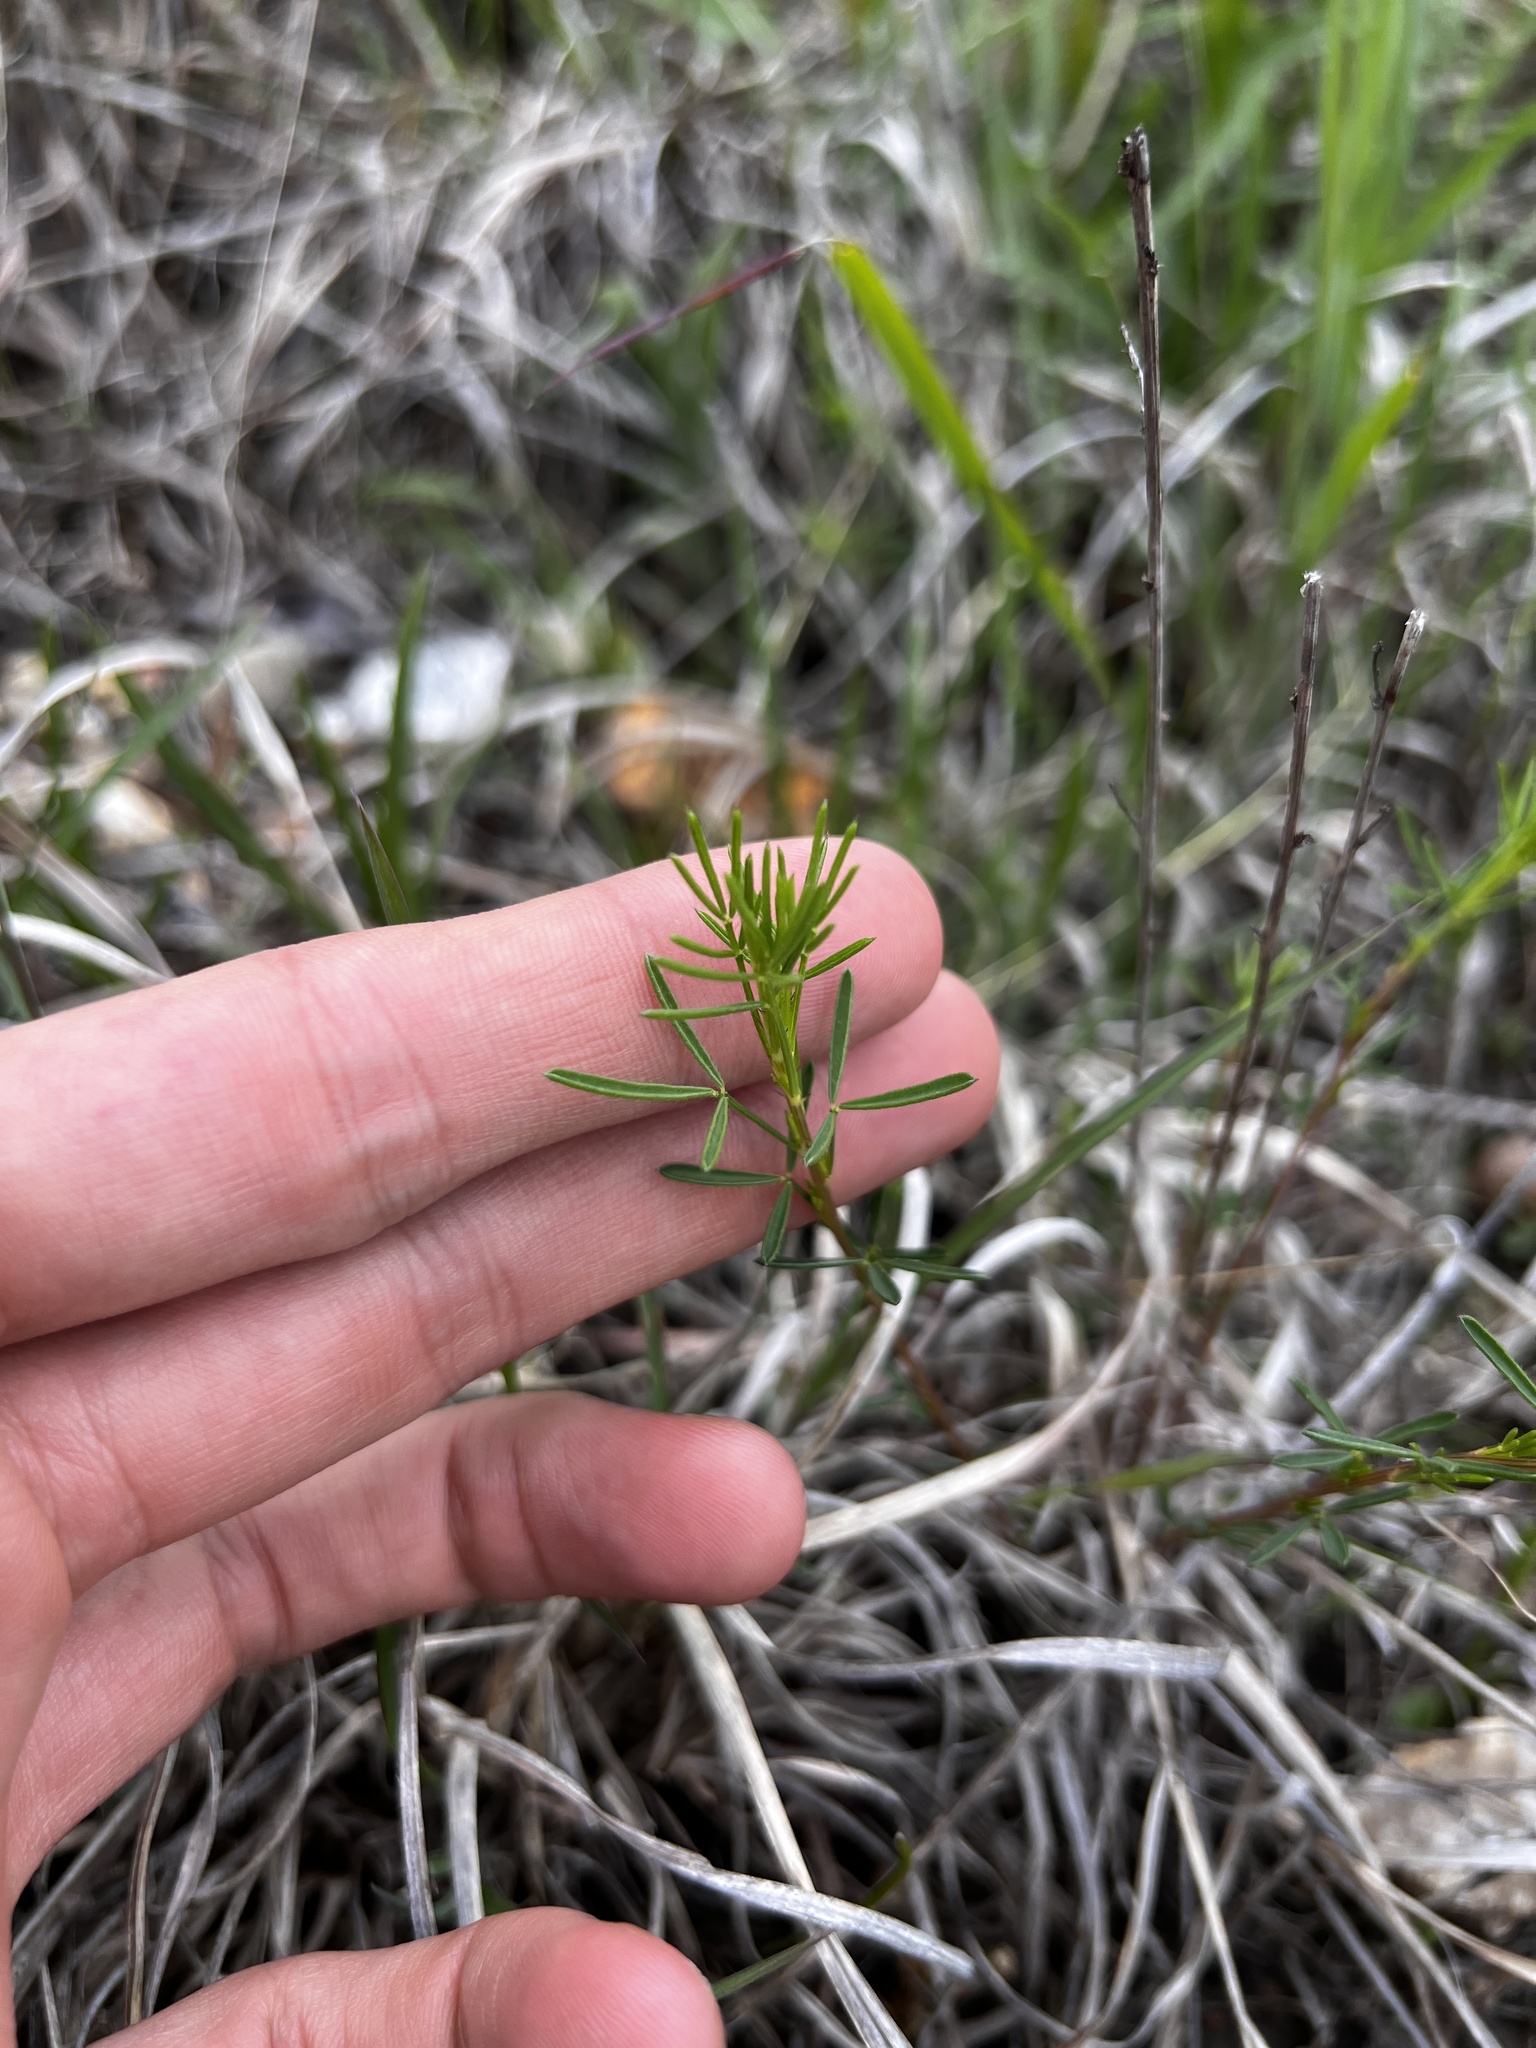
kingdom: Plantae
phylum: Tracheophyta
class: Magnoliopsida
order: Fabales
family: Fabaceae
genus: Dalea
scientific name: Dalea purpurea
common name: Purple prairie-clover
